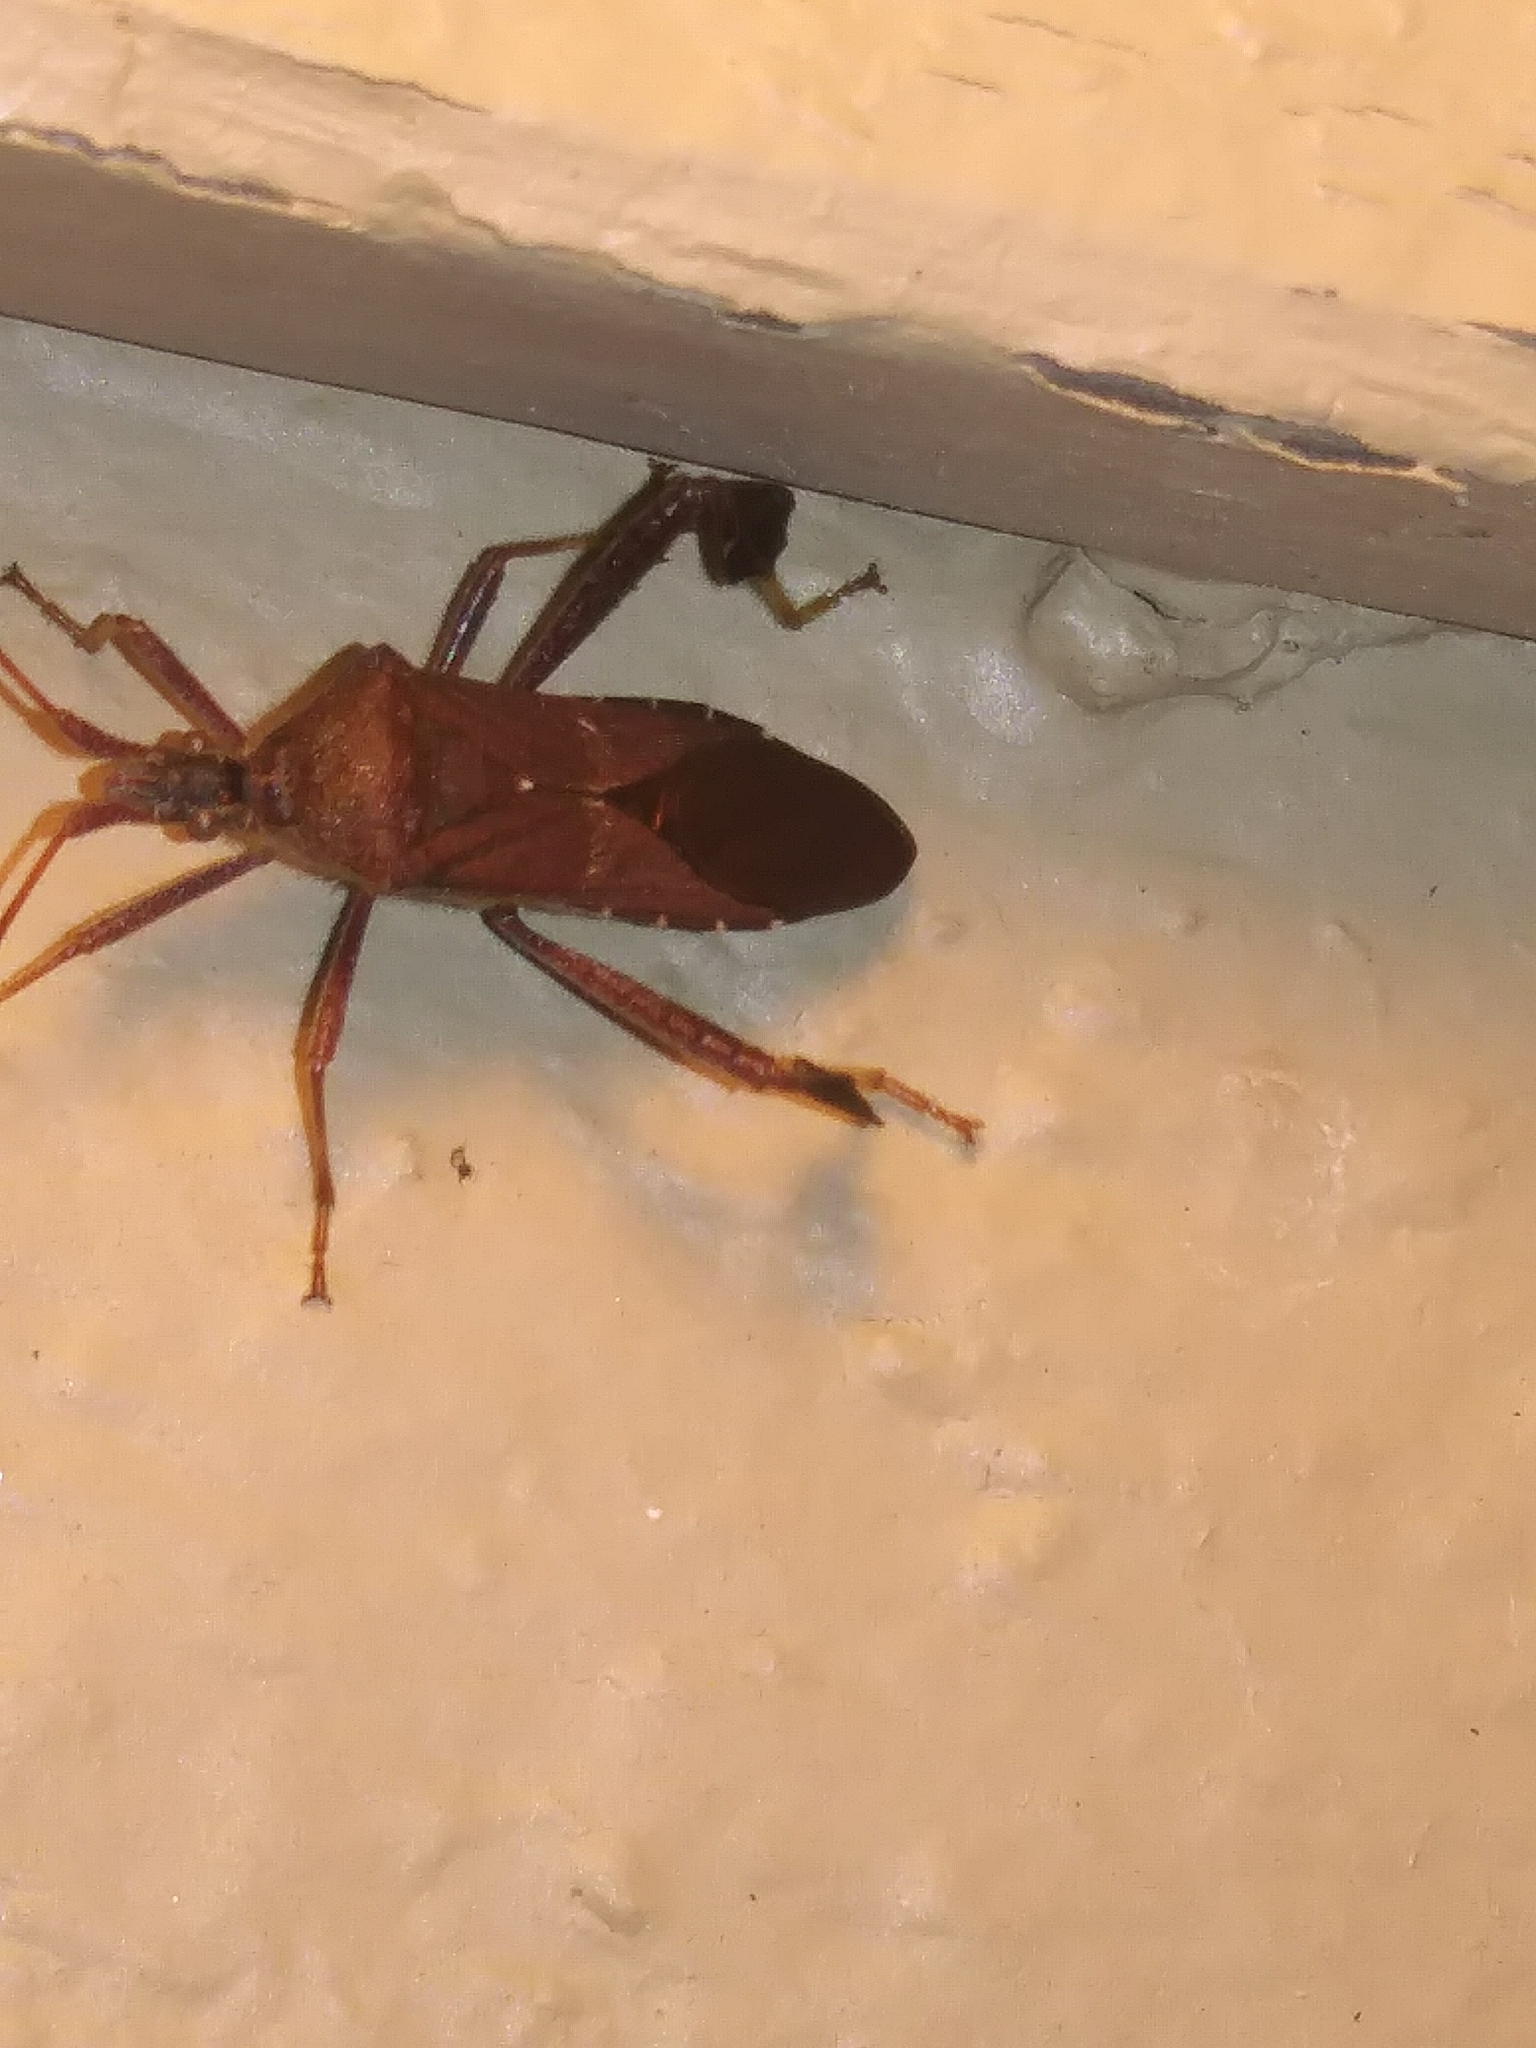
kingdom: Animalia
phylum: Arthropoda
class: Insecta
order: Hemiptera
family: Coreidae
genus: Leptoglossus
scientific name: Leptoglossus oppositus
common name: Northern leaf-footed bug
